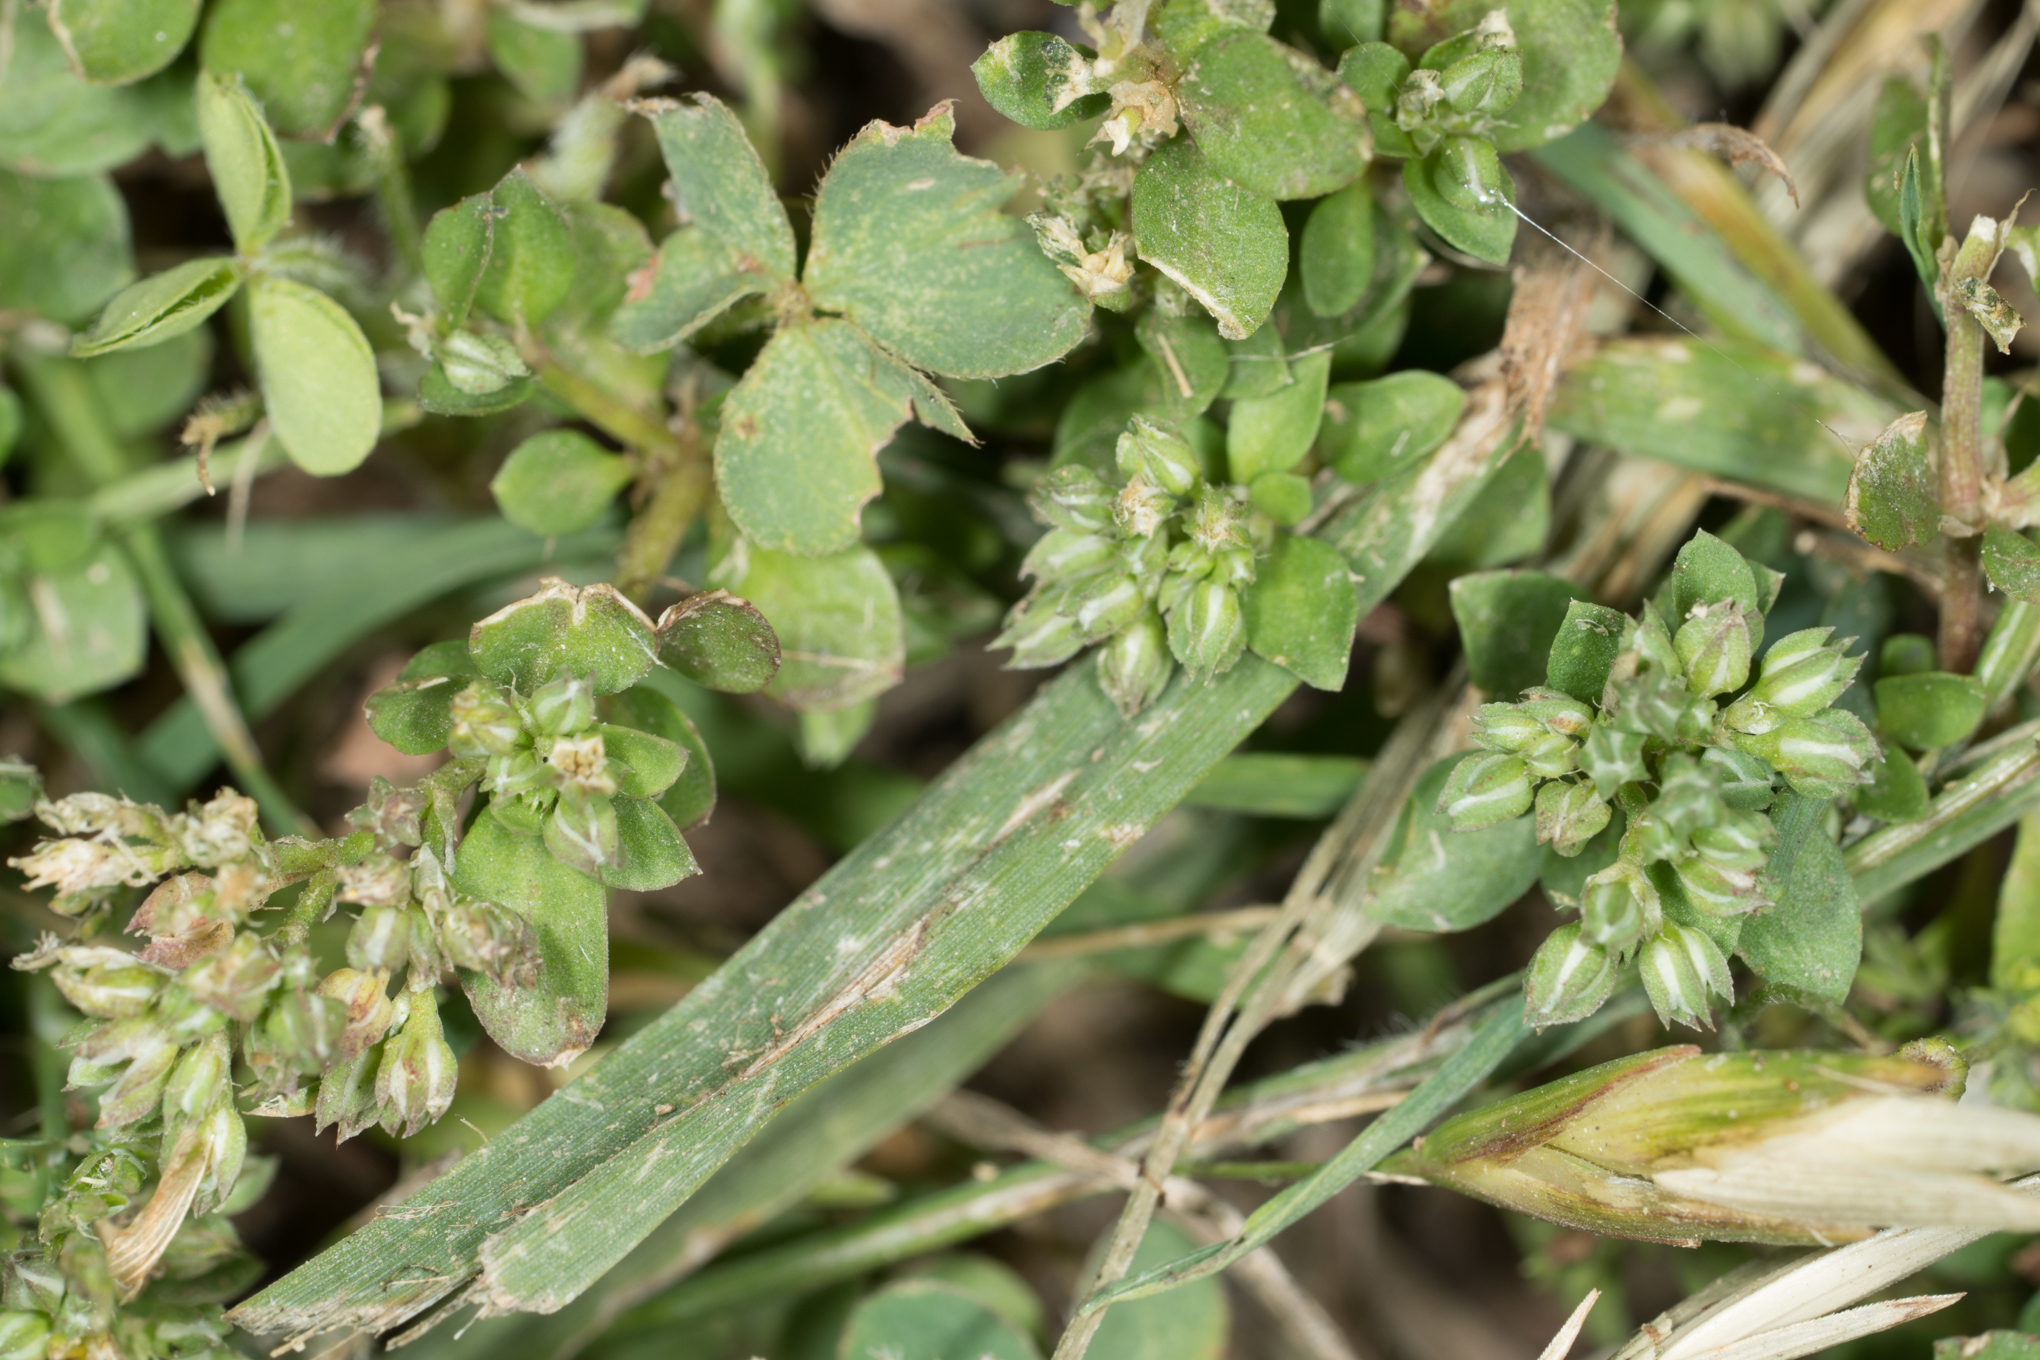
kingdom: Plantae
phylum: Tracheophyta
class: Magnoliopsida
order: Caryophyllales
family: Caryophyllaceae
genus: Polycarpon
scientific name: Polycarpon tetraphyllum
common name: Four-leaved all-seed
